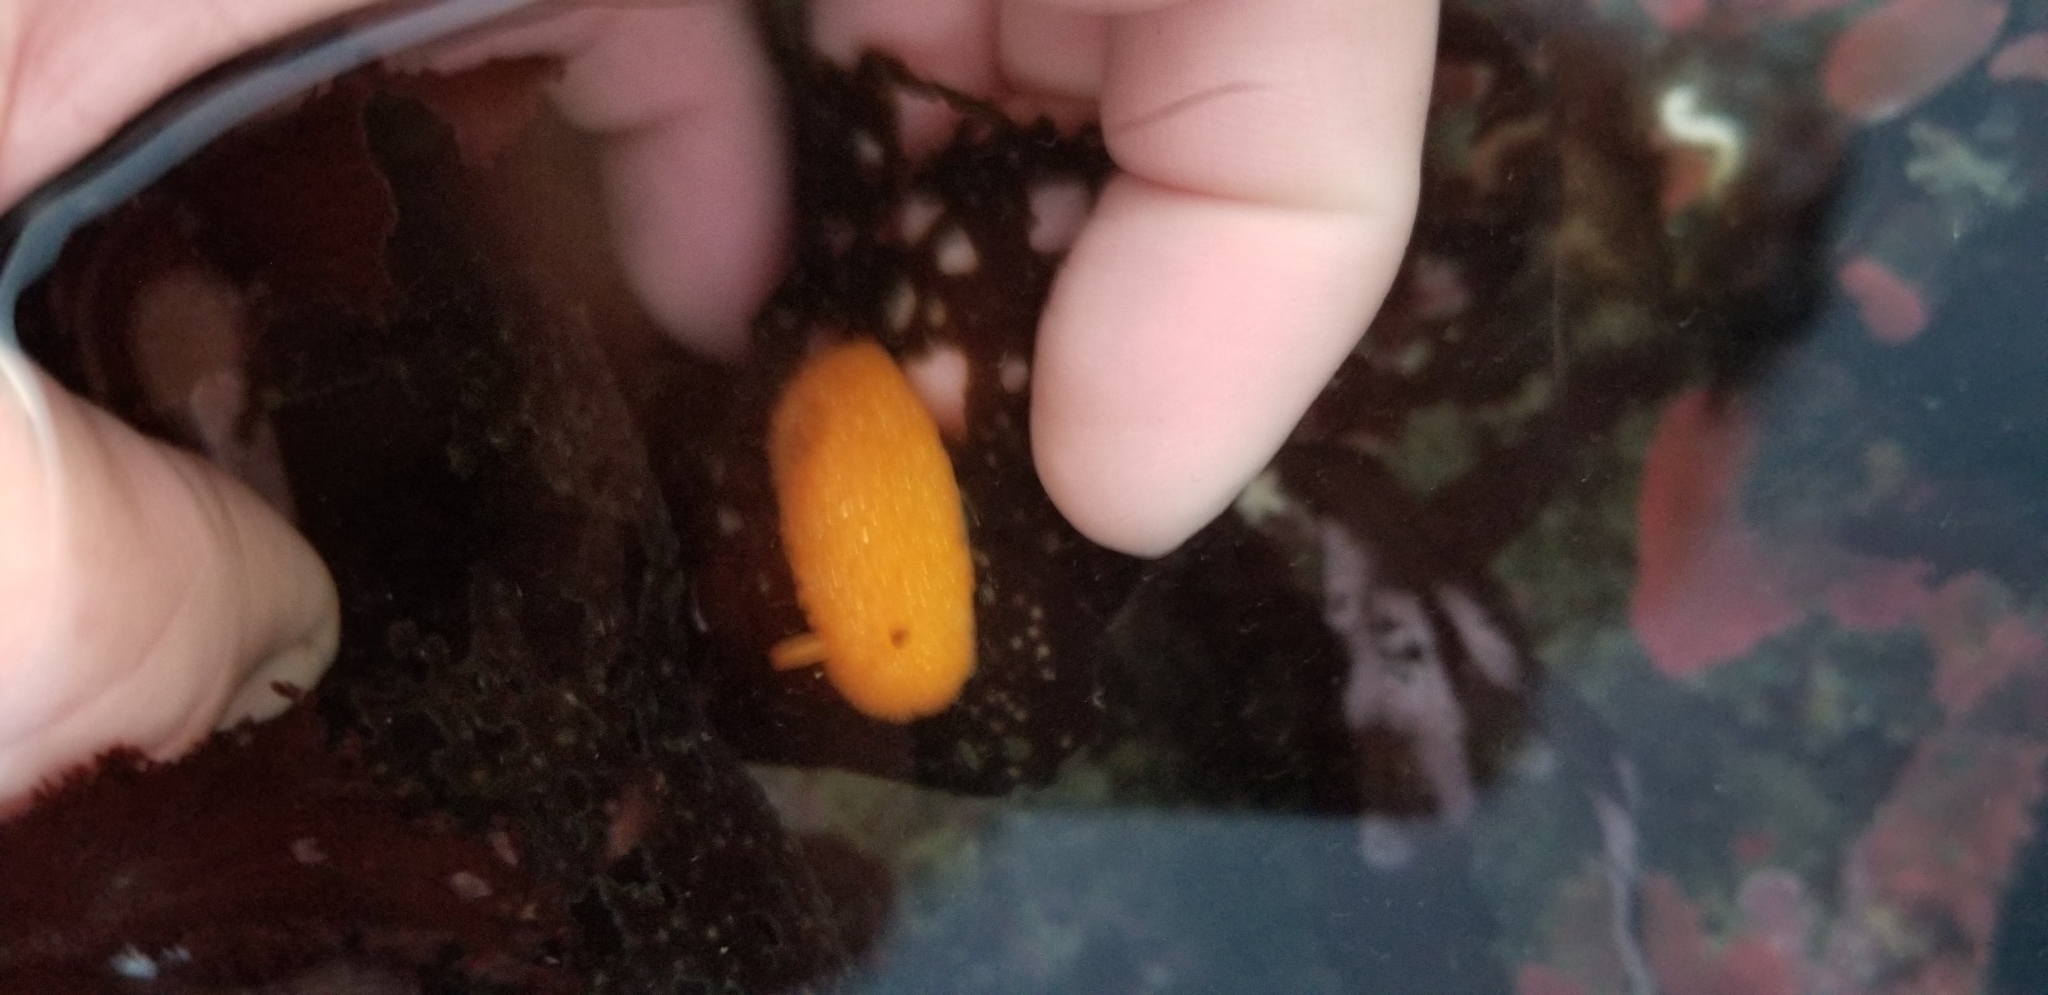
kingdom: Animalia
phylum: Mollusca
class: Gastropoda
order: Nudibranchia
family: Onchidorididae
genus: Acanthodoris
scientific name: Acanthodoris lutea
